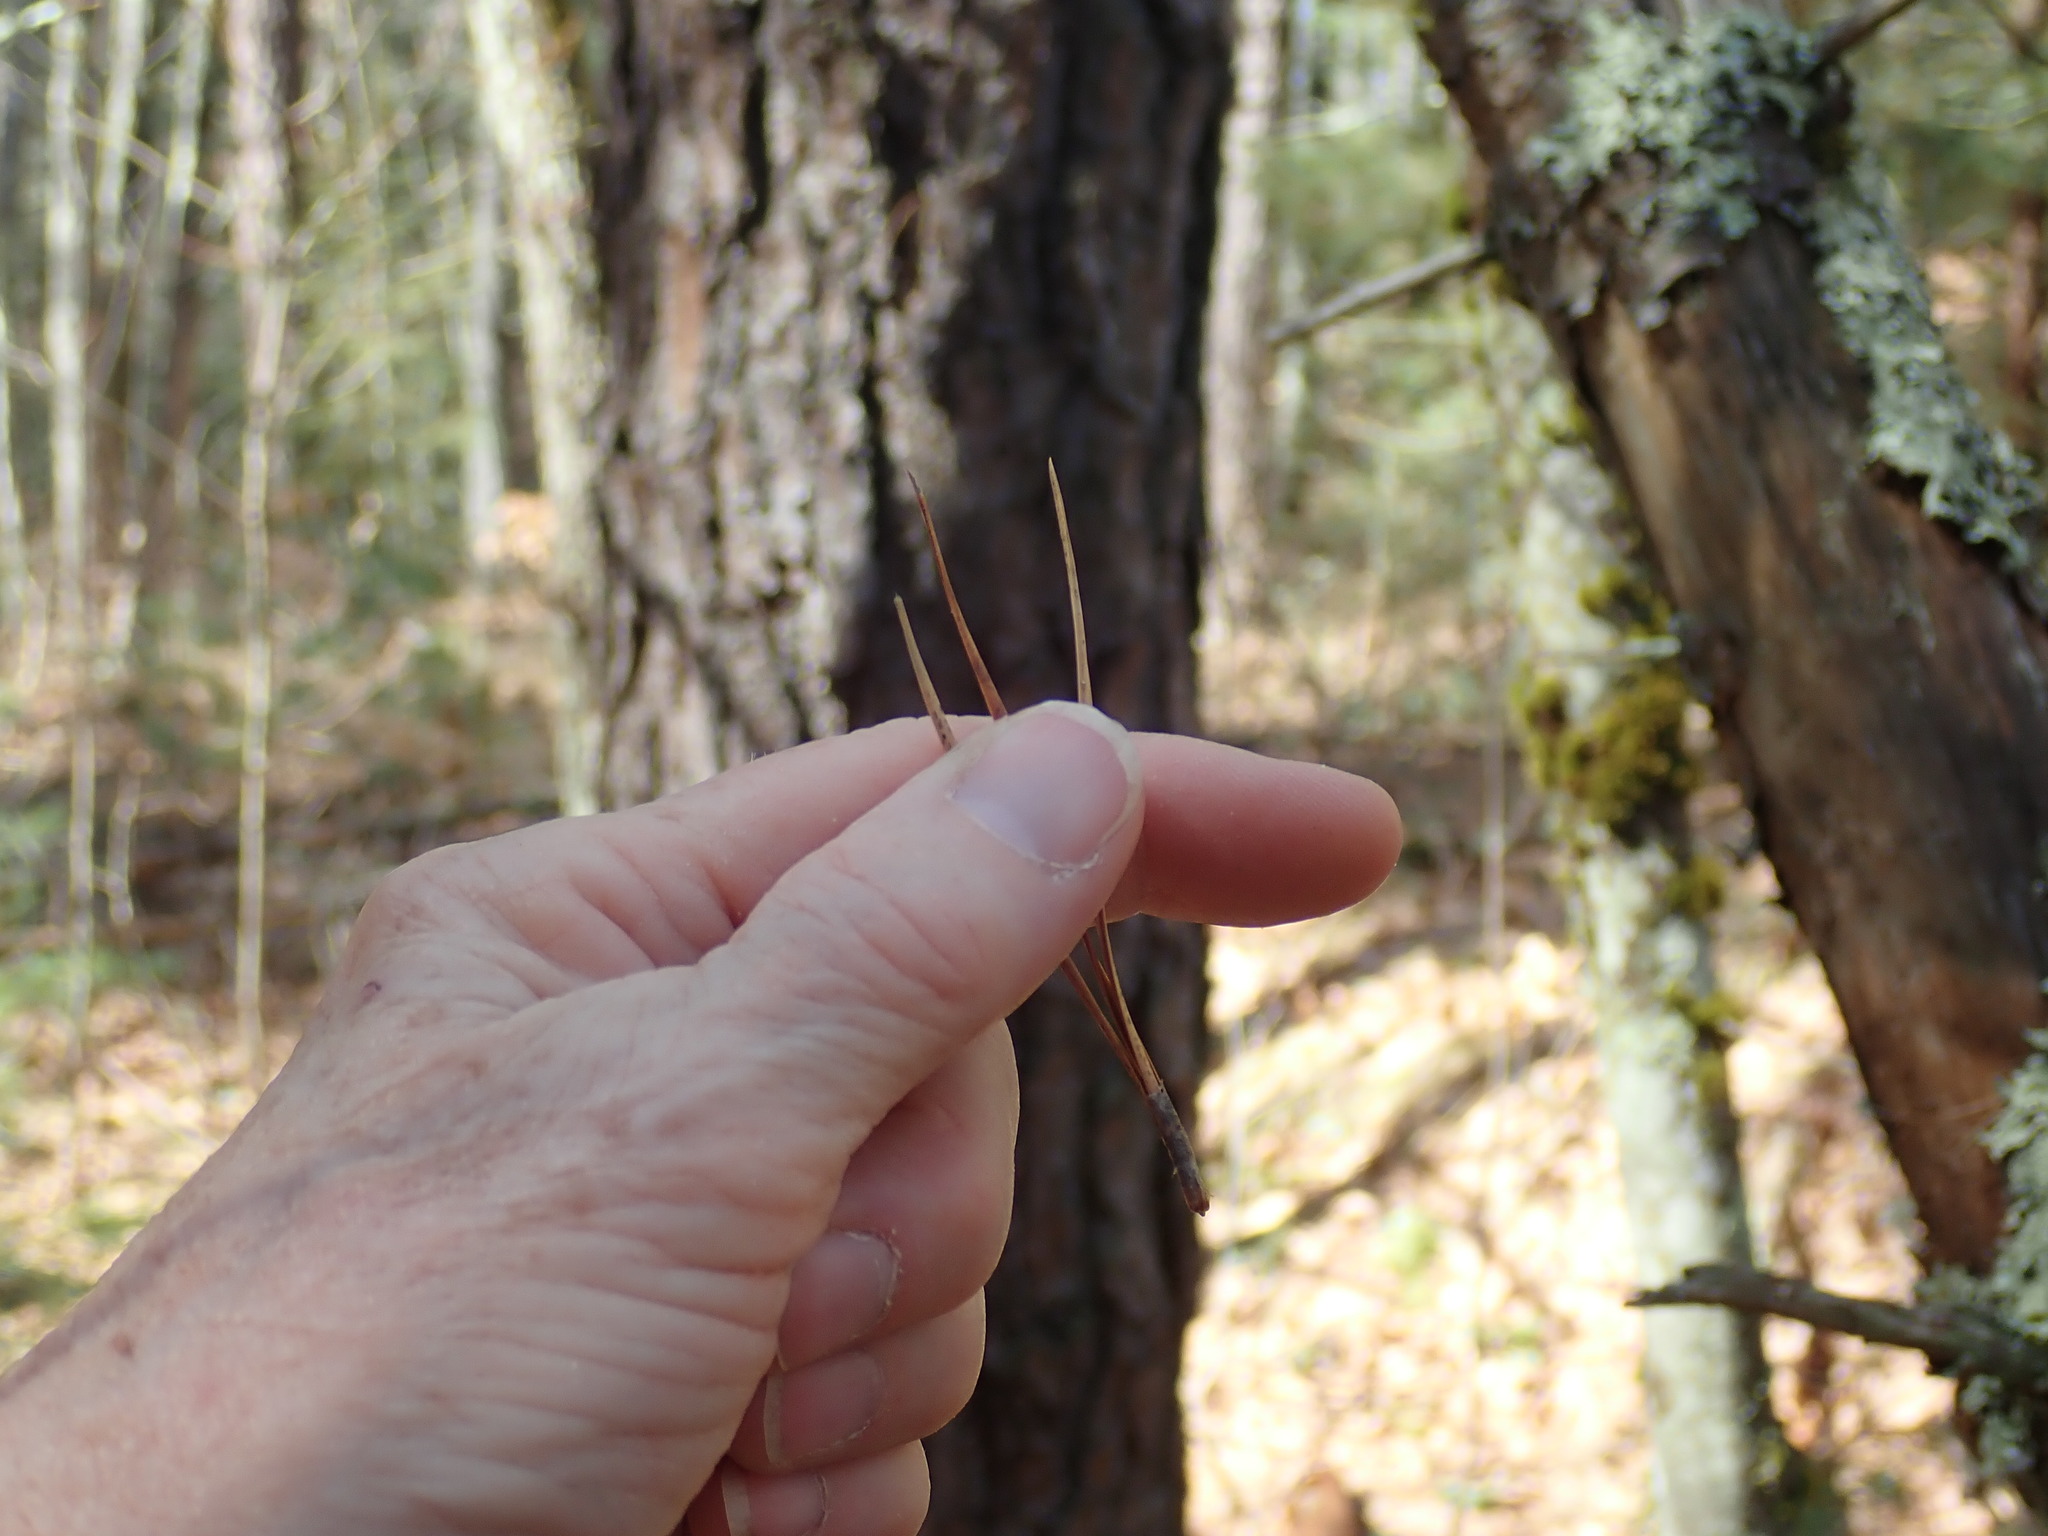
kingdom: Plantae
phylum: Tracheophyta
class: Pinopsida
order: Pinales
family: Pinaceae
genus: Pinus
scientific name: Pinus rigida
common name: Pitch pine
